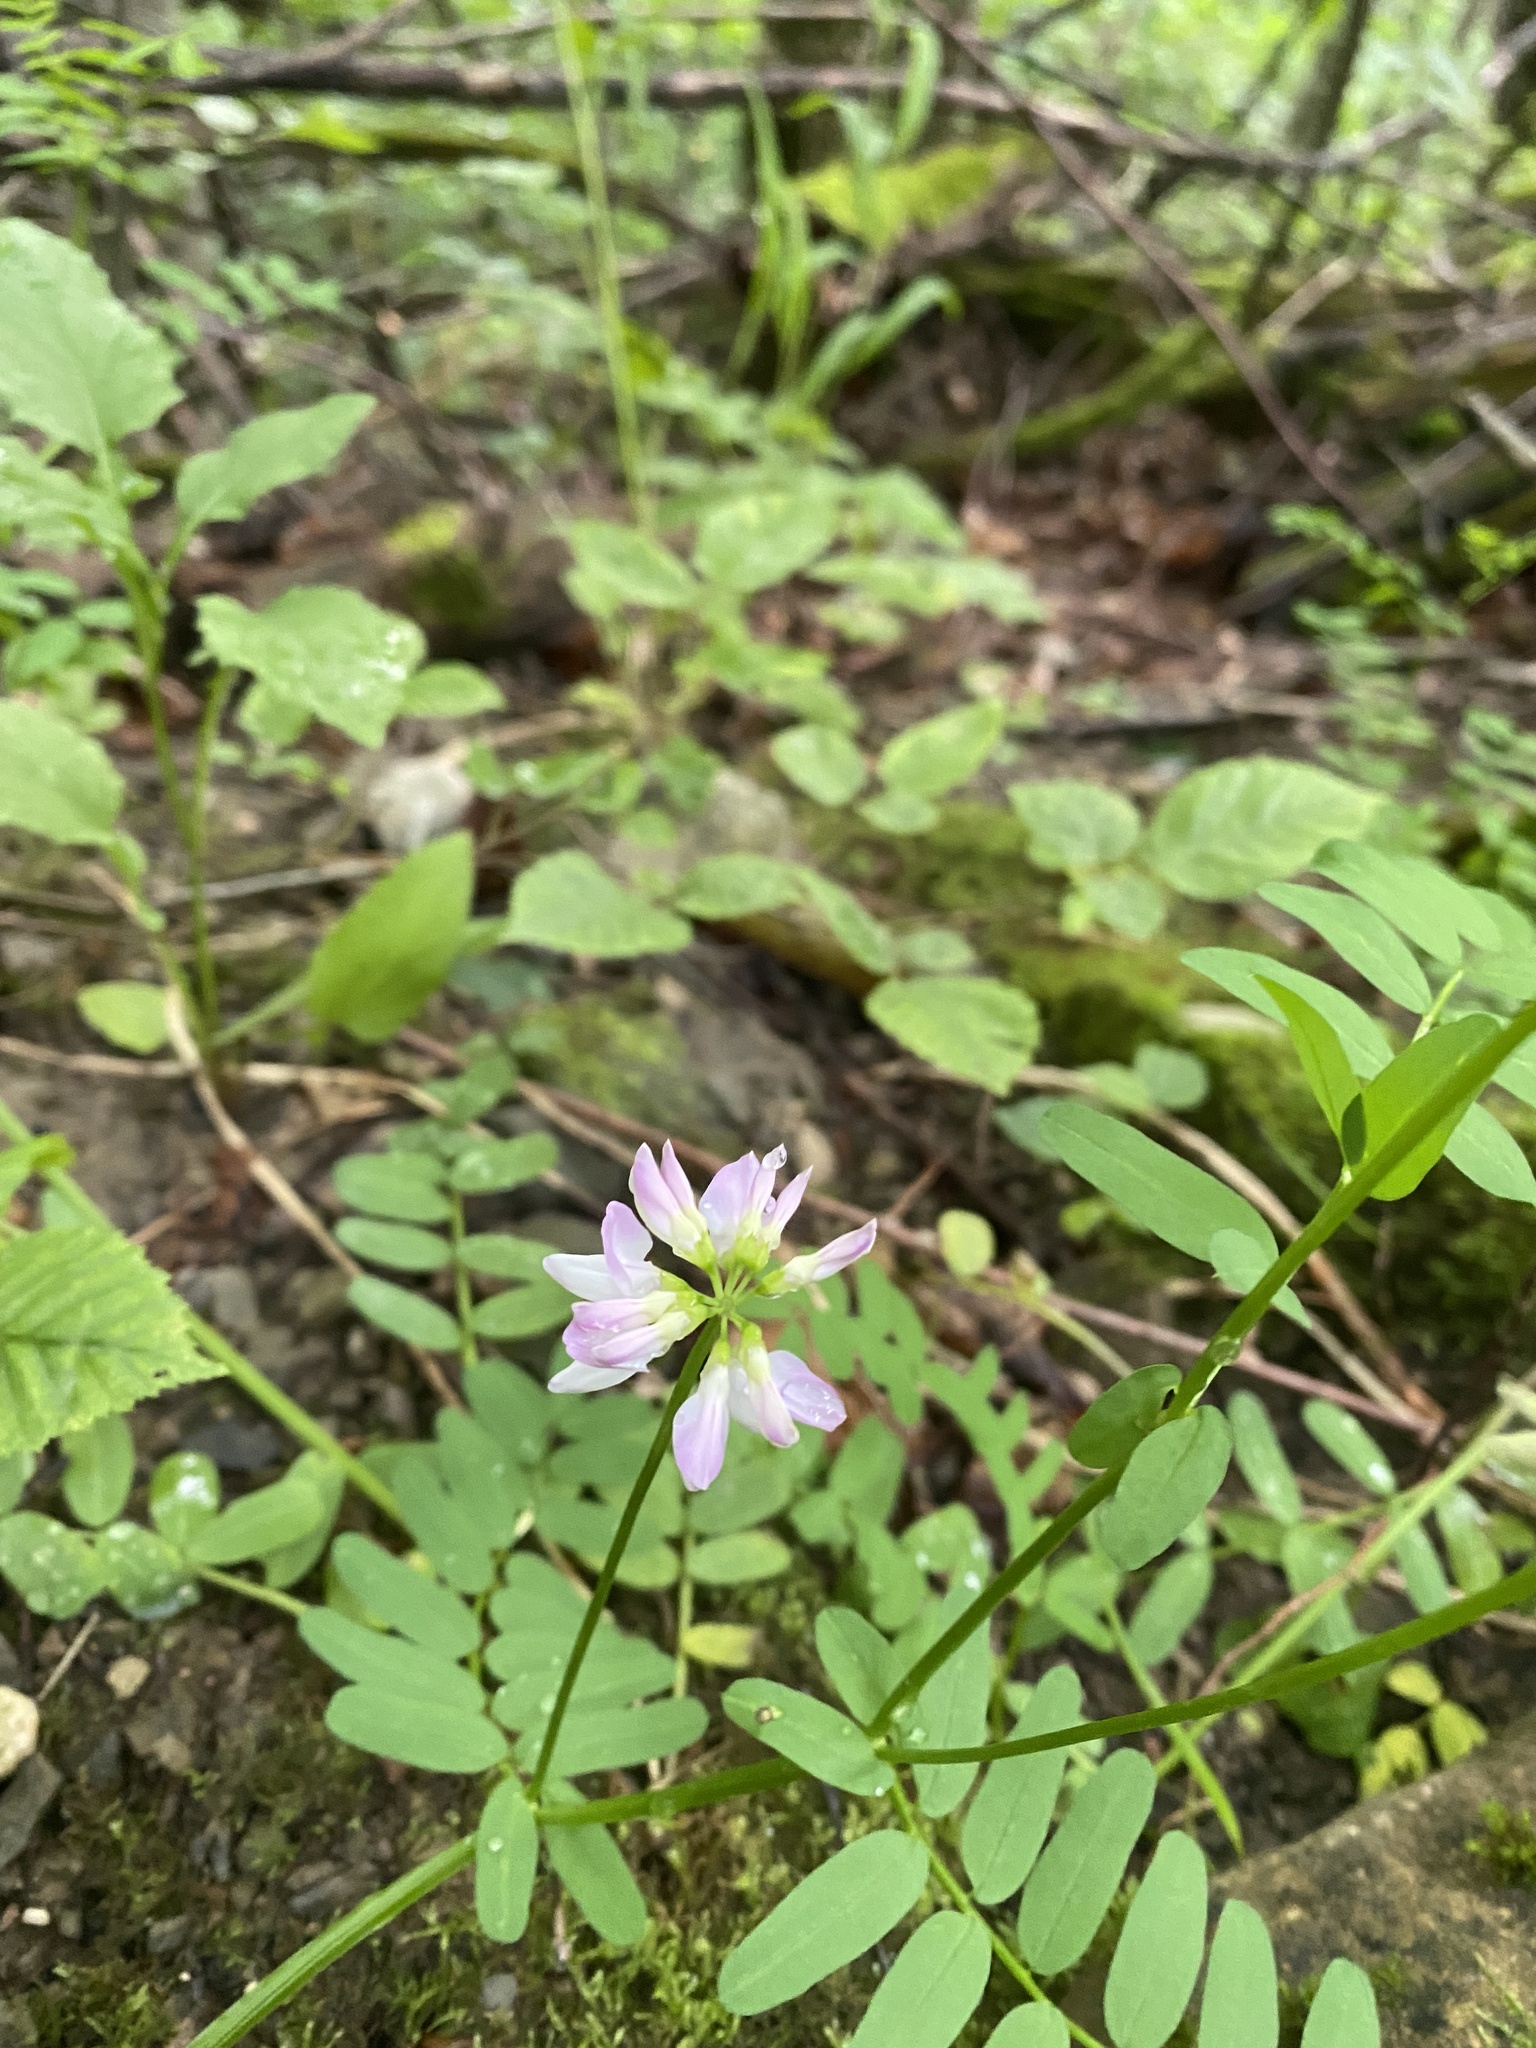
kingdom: Plantae
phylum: Tracheophyta
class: Magnoliopsida
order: Fabales
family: Fabaceae
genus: Coronilla
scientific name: Coronilla varia
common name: Crownvetch
